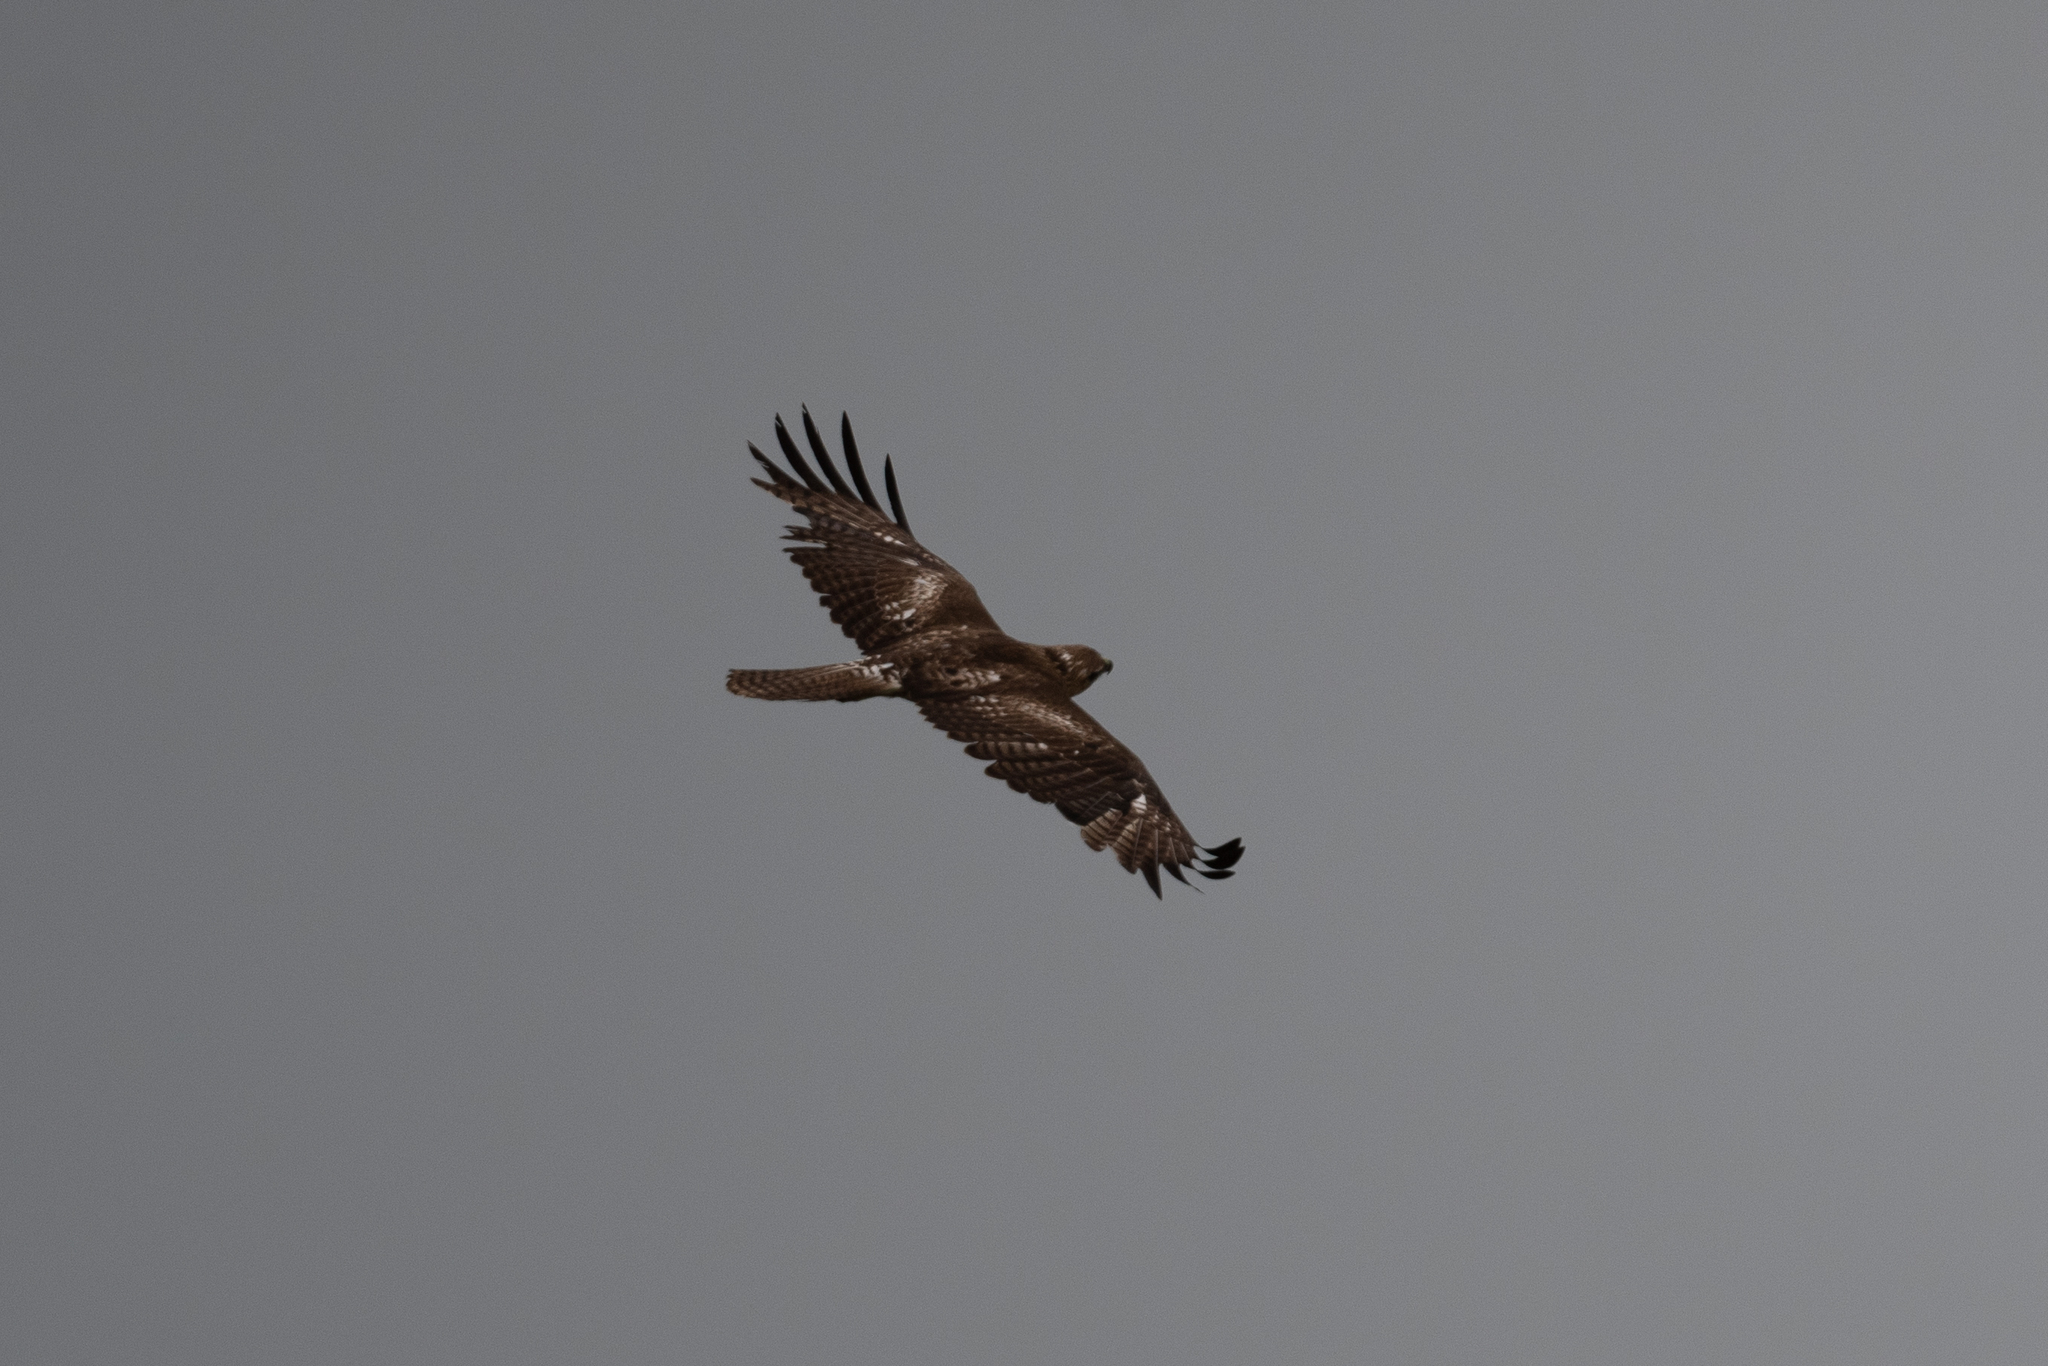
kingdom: Animalia
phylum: Chordata
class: Aves
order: Accipitriformes
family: Accipitridae
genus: Buteo
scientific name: Buteo jamaicensis
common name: Red-tailed hawk
